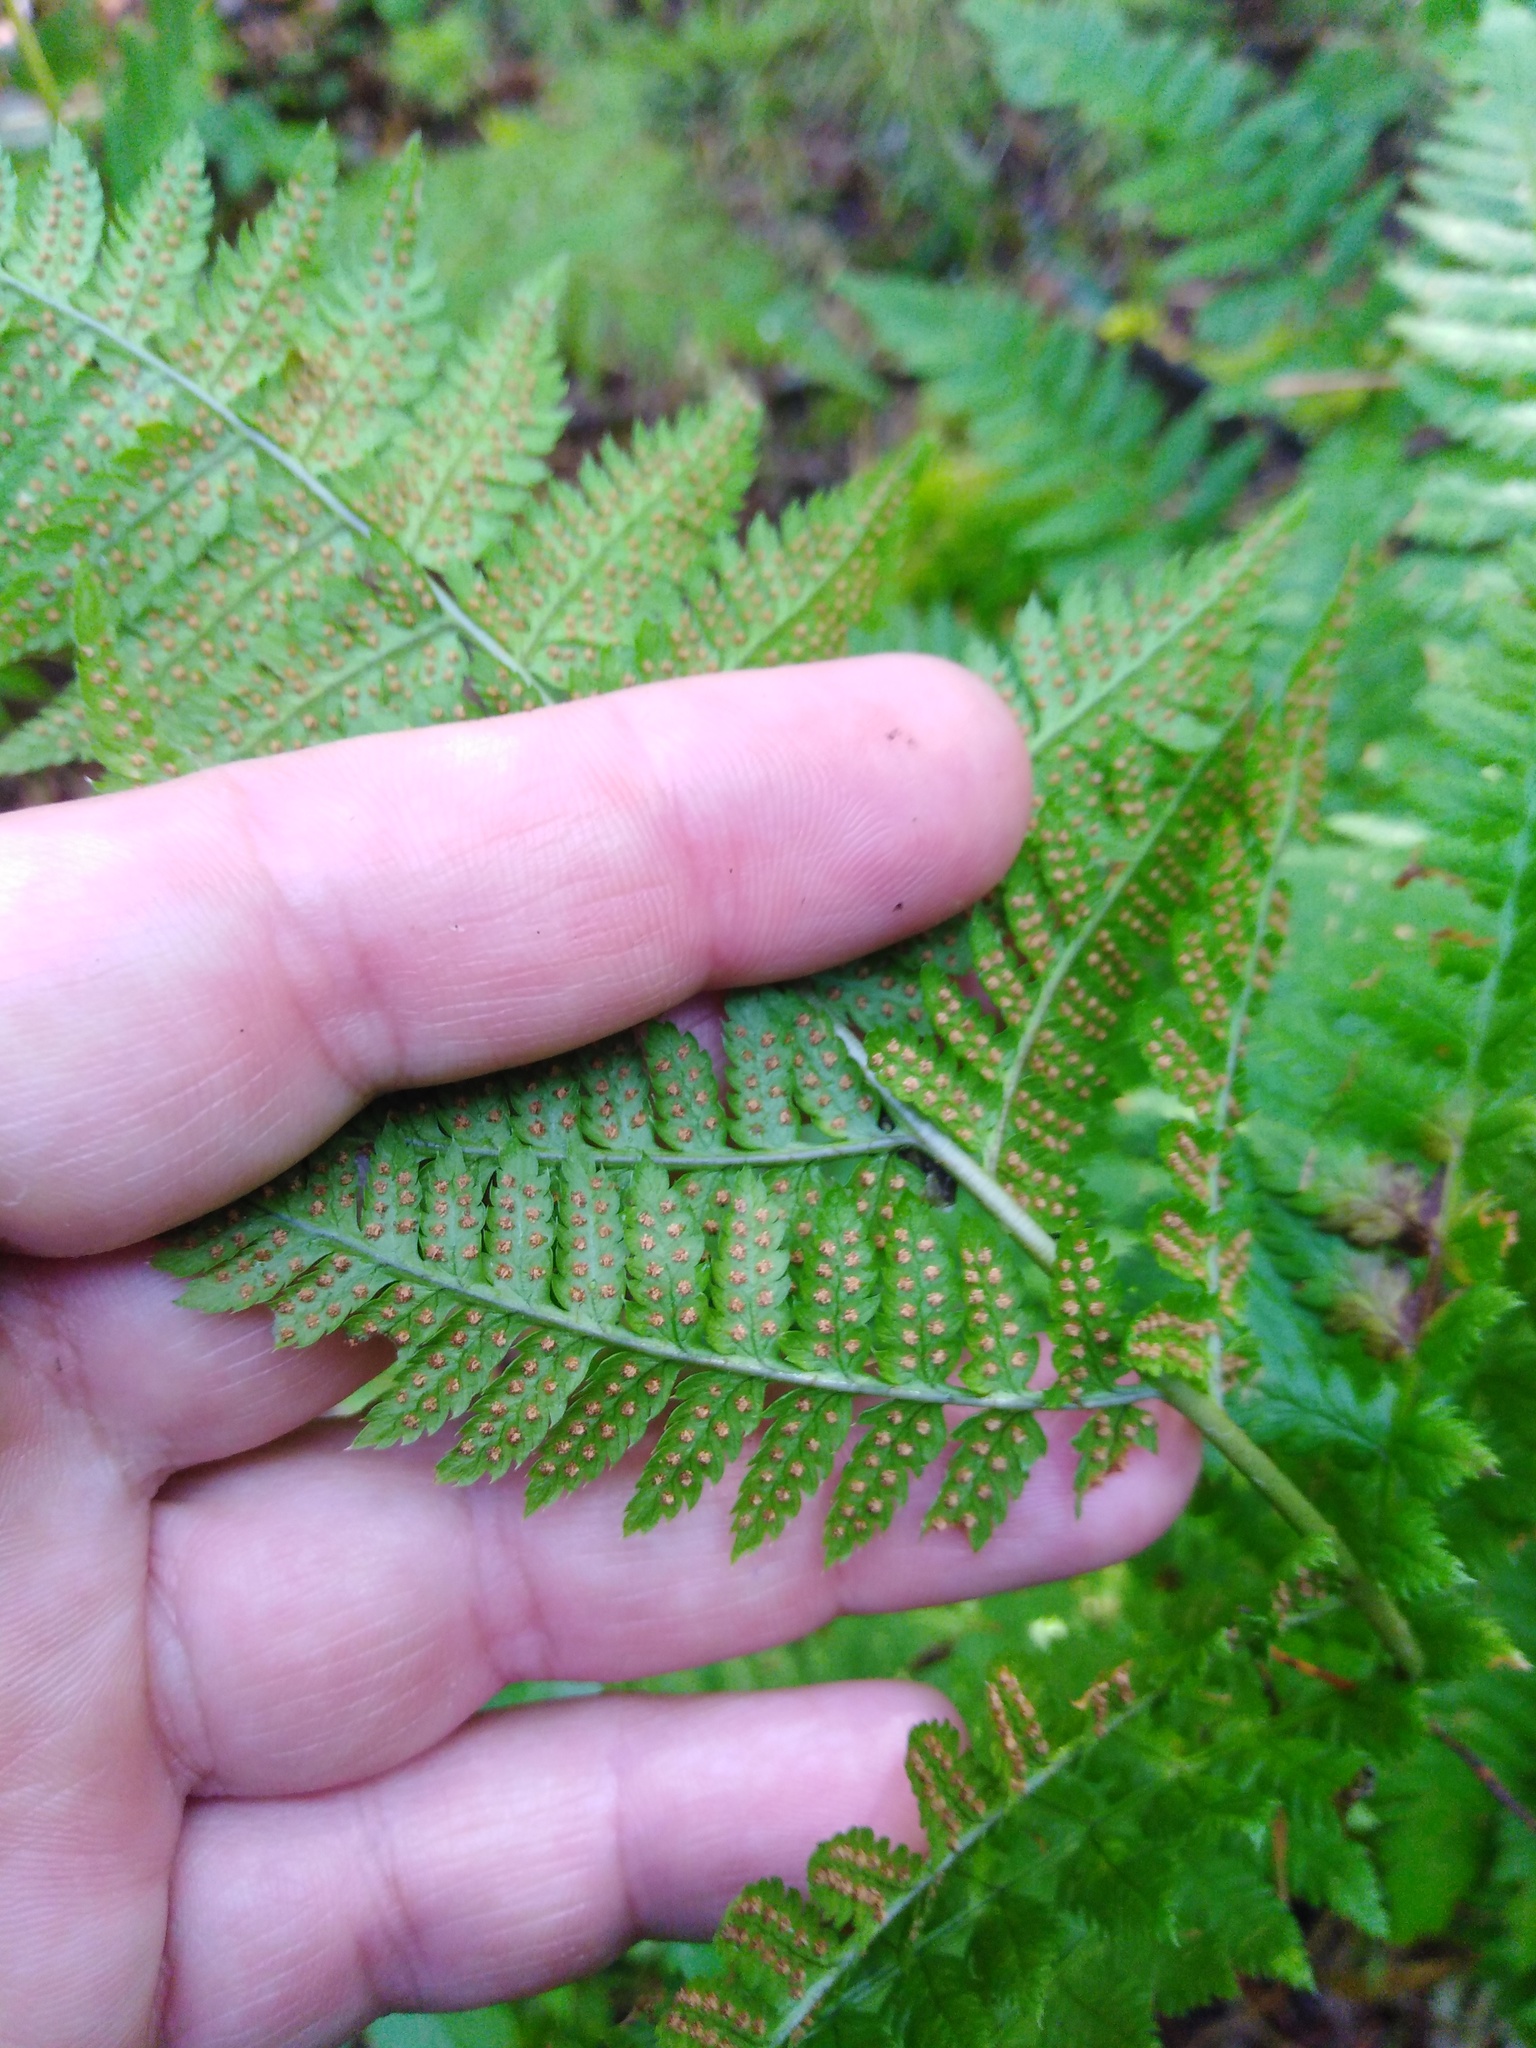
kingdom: Plantae
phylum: Tracheophyta
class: Polypodiopsida
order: Polypodiales
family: Dryopteridaceae
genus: Dryopteris
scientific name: Dryopteris carthusiana
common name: Narrow buckler-fern
